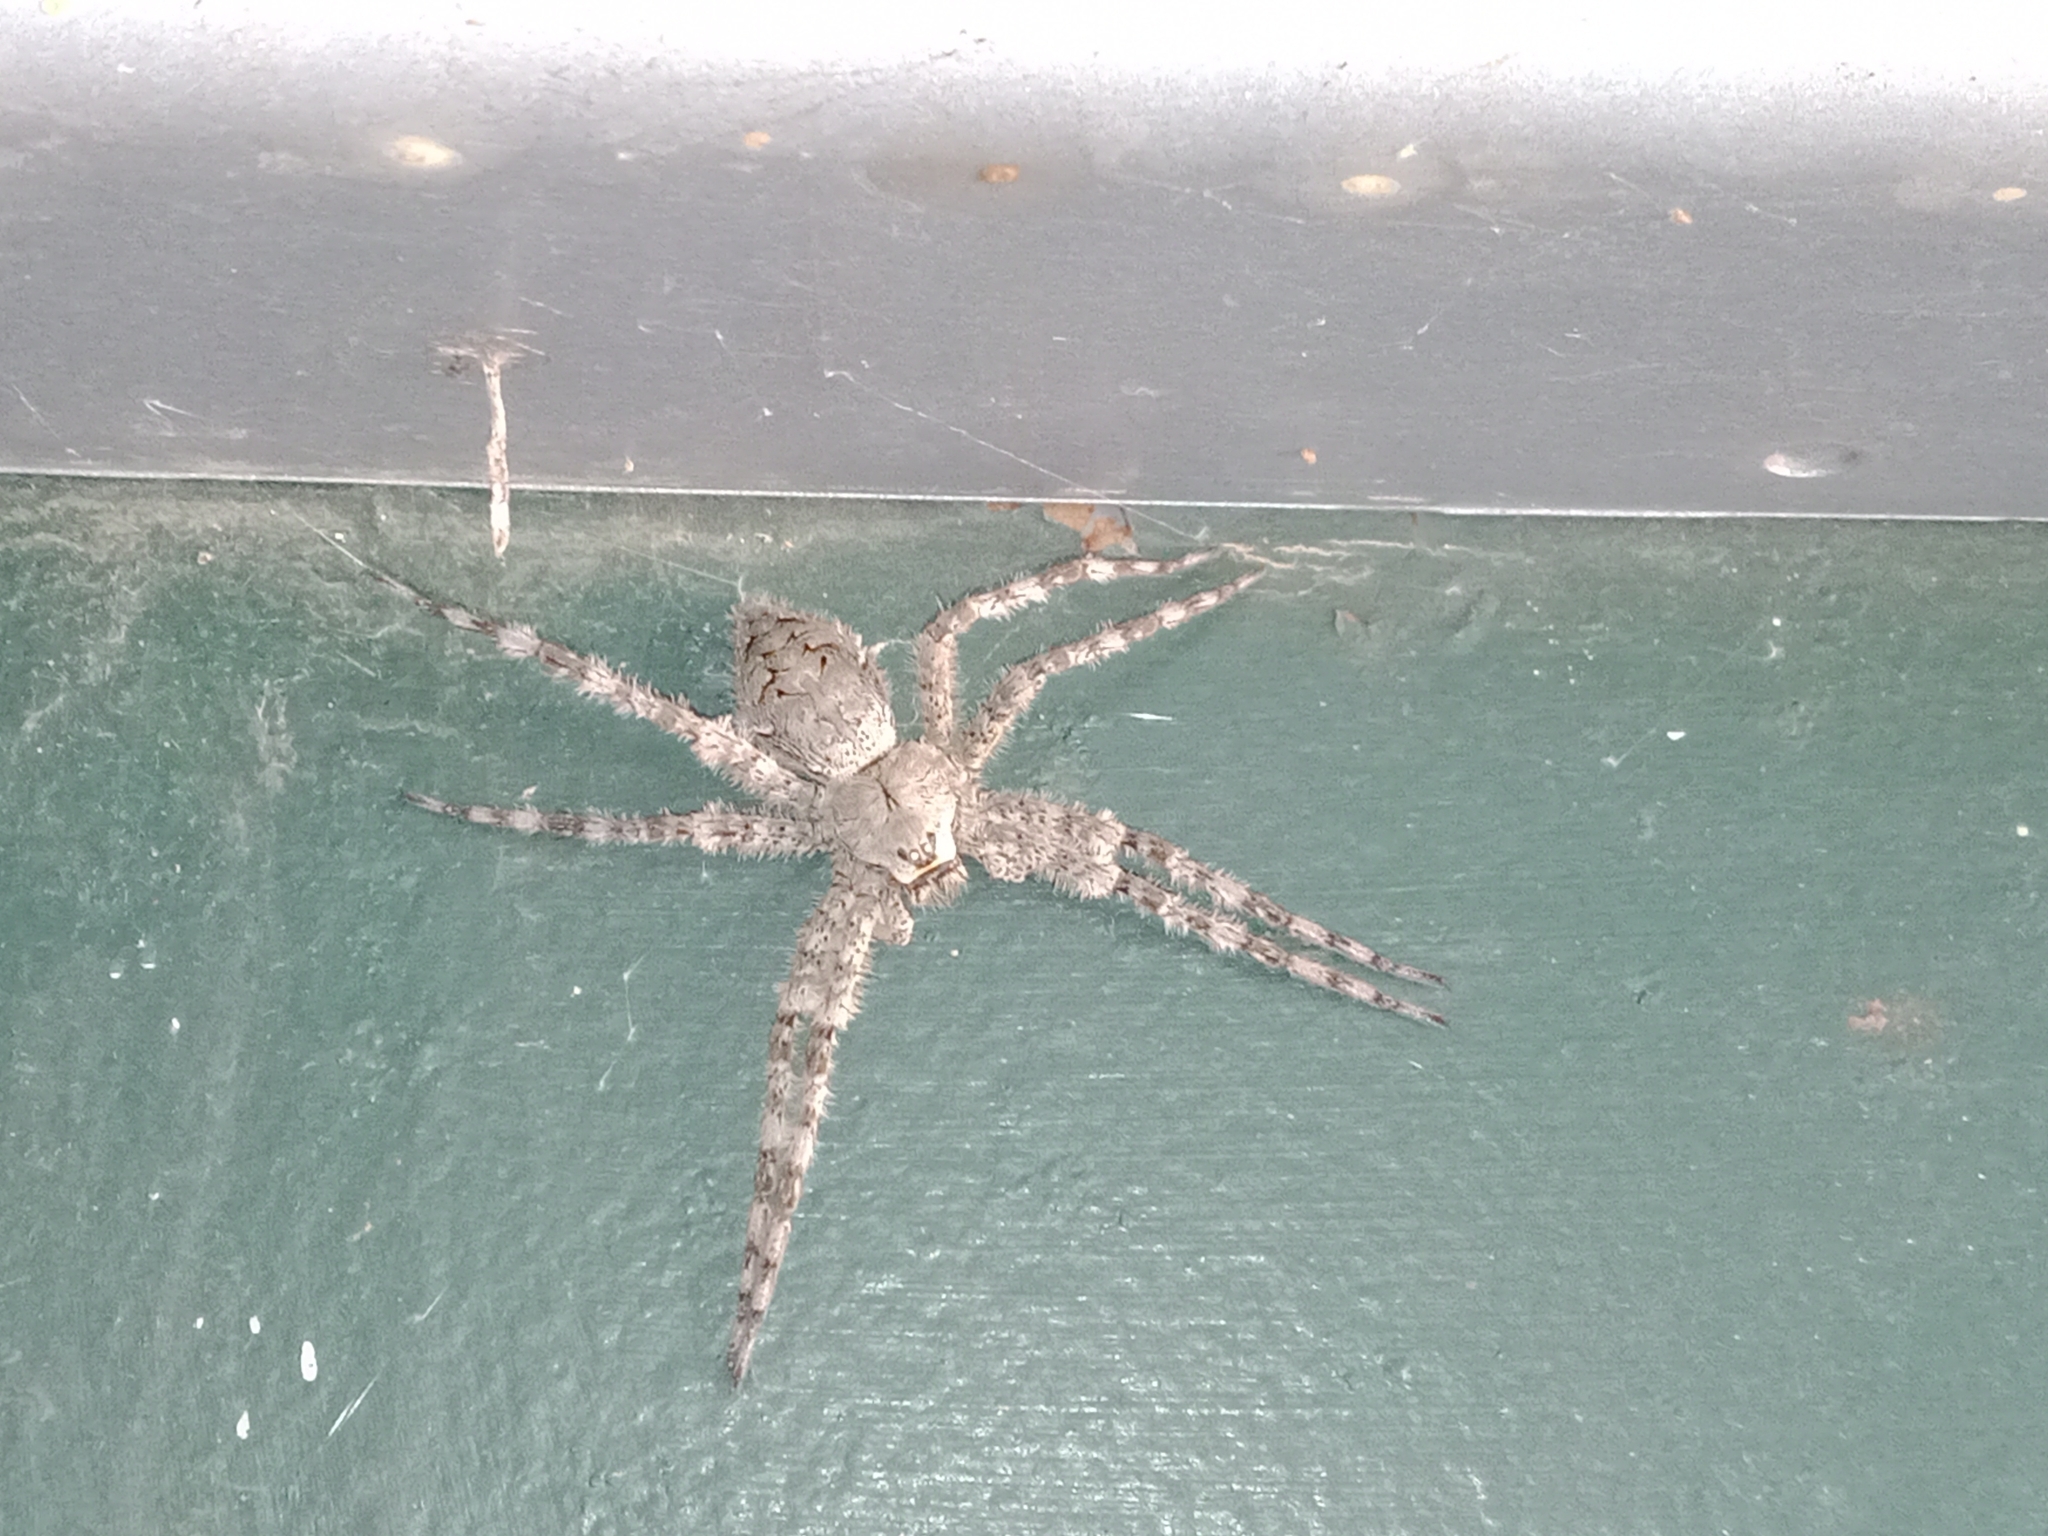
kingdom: Animalia
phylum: Arthropoda
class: Arachnida
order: Araneae
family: Pisauridae
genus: Dolomedes
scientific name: Dolomedes albineus
